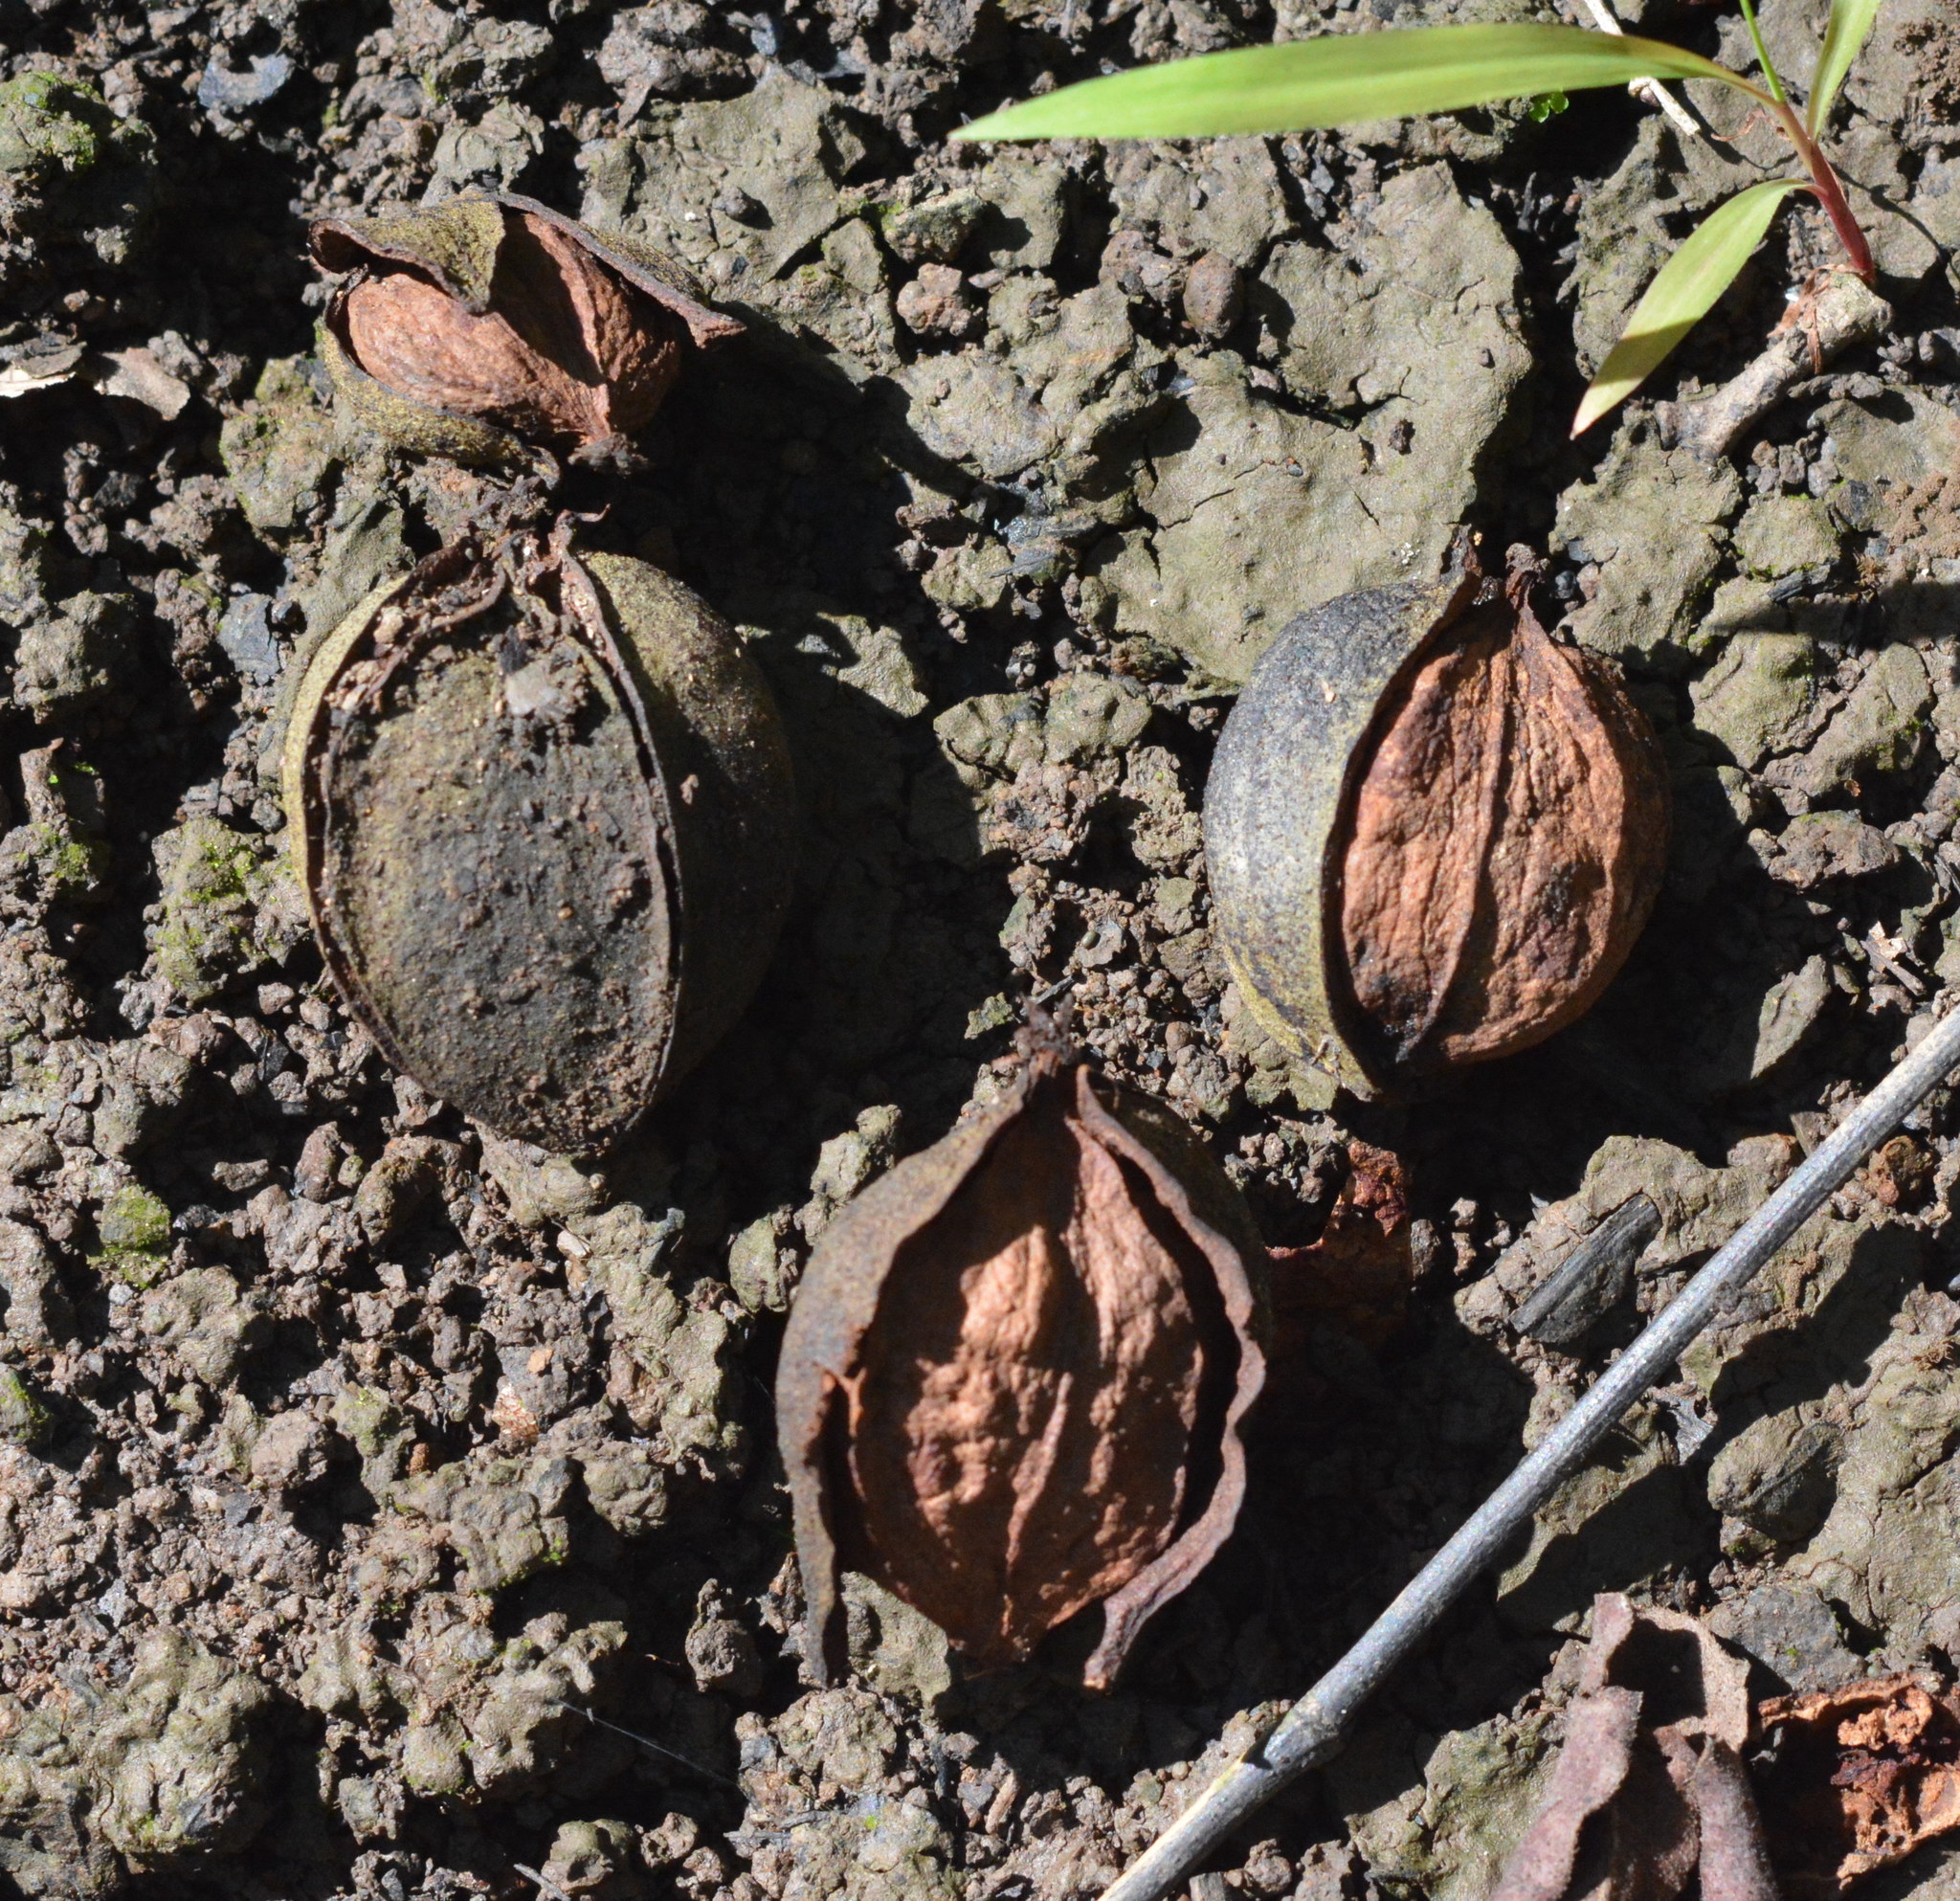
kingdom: Plantae
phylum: Tracheophyta
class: Magnoliopsida
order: Fagales
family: Juglandaceae
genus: Carya
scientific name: Carya aquatica
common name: Water hickory
